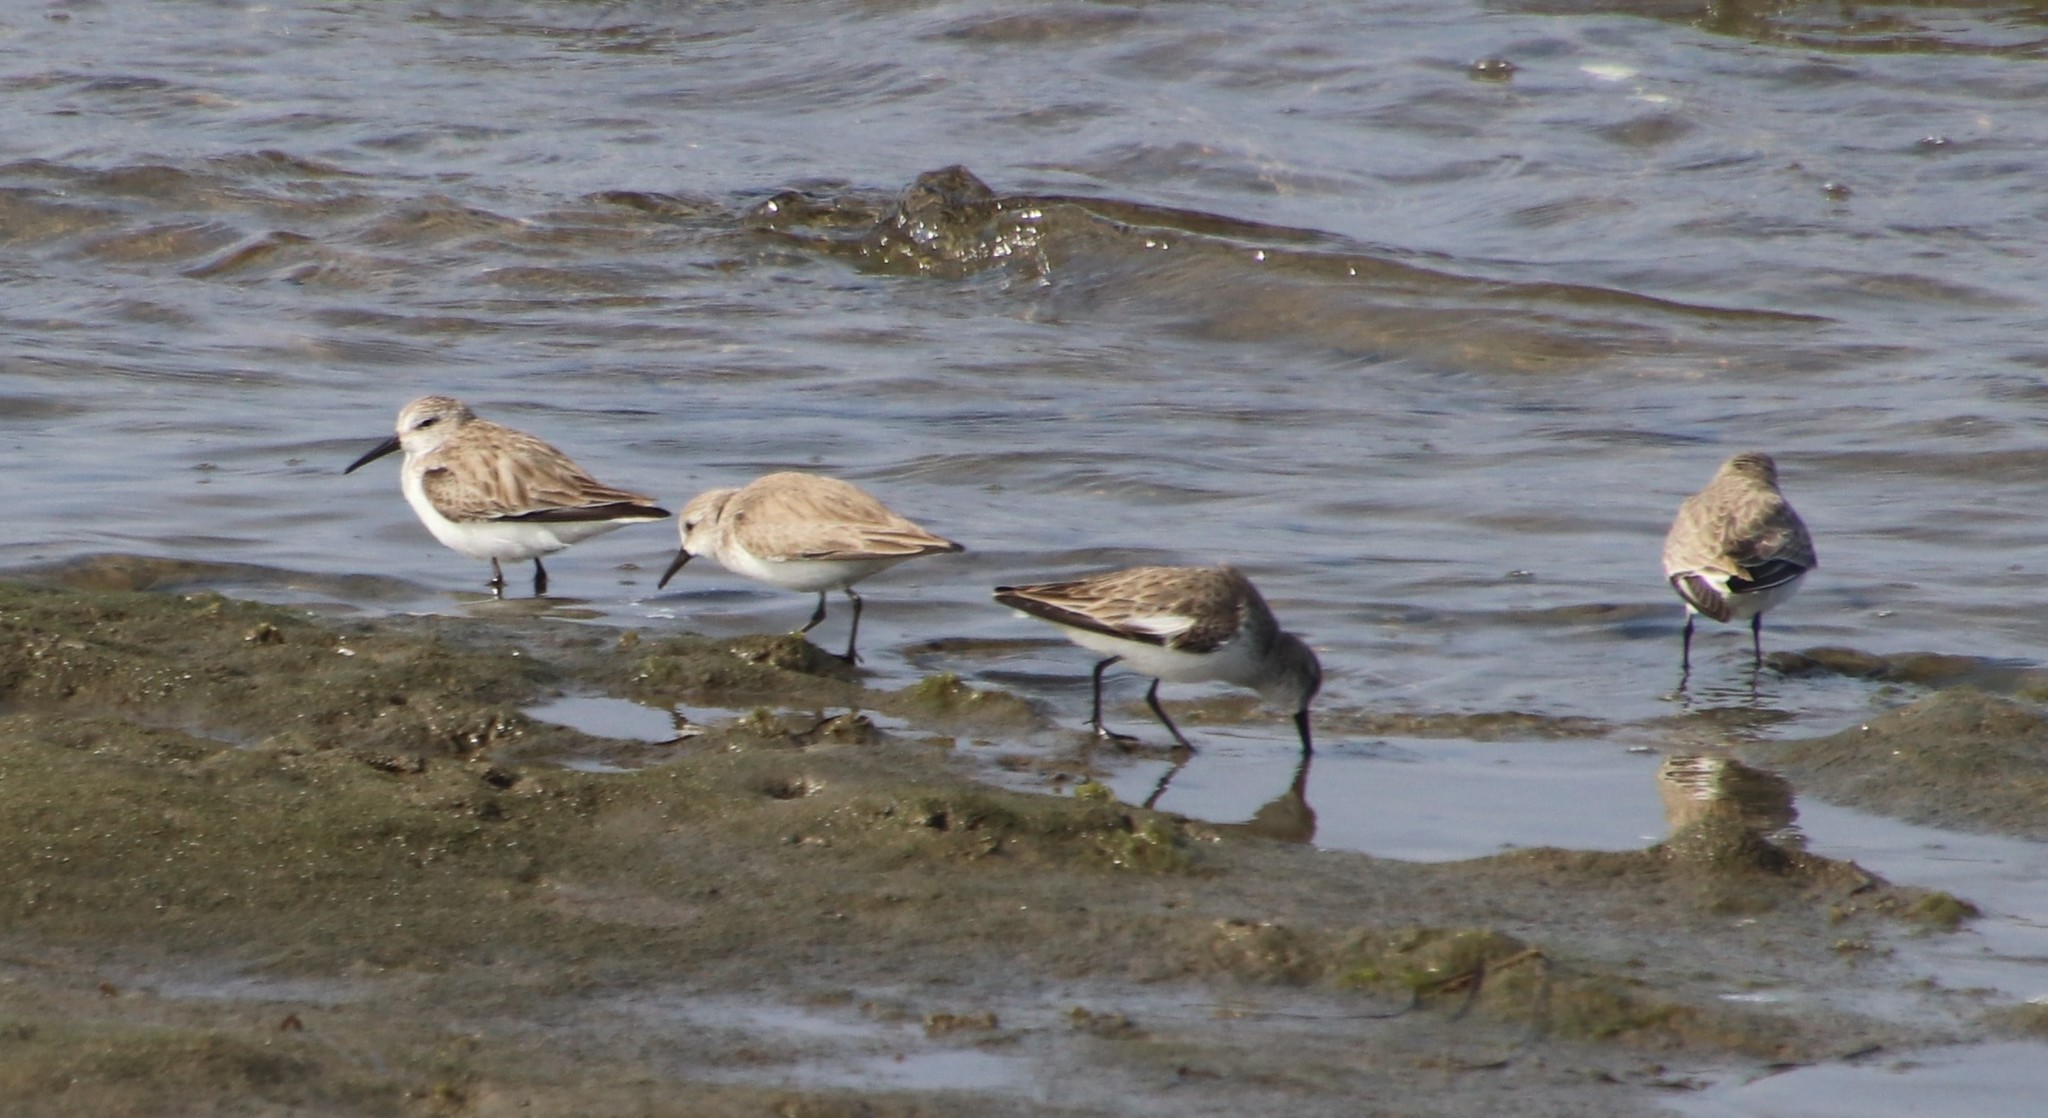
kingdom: Animalia
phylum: Chordata
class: Aves
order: Charadriiformes
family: Scolopacidae
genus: Calidris
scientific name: Calidris mauri
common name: Western sandpiper
